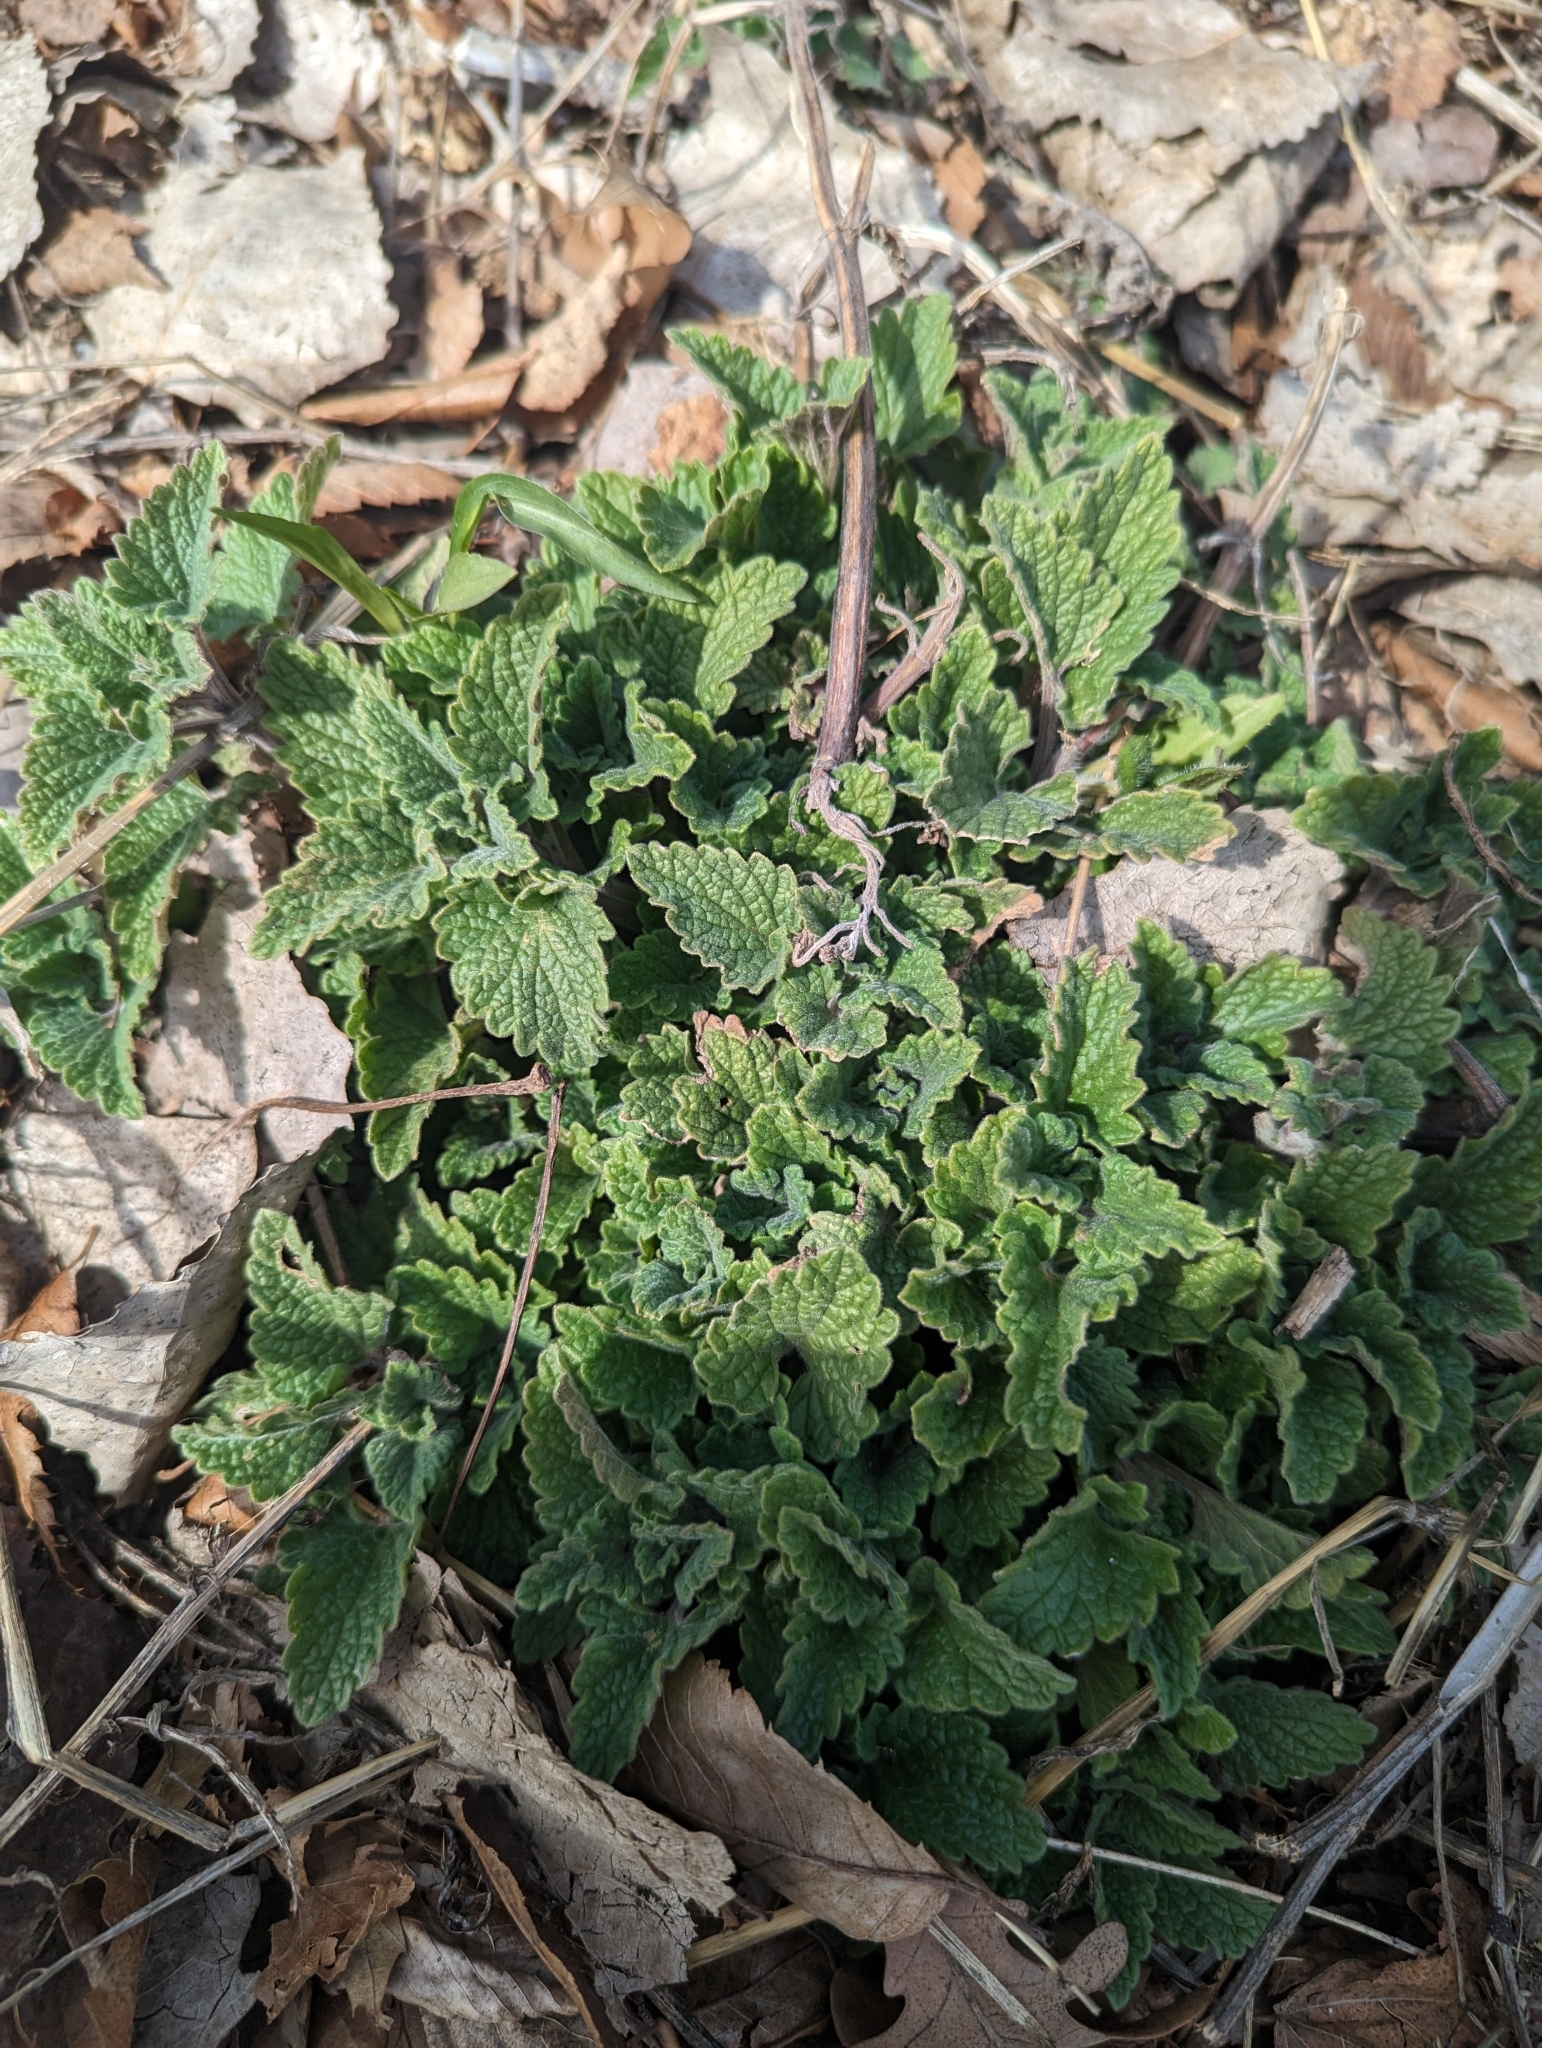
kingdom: Plantae
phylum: Tracheophyta
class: Magnoliopsida
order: Lamiales
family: Lamiaceae
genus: Nepeta
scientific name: Nepeta cataria
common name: Catnip
